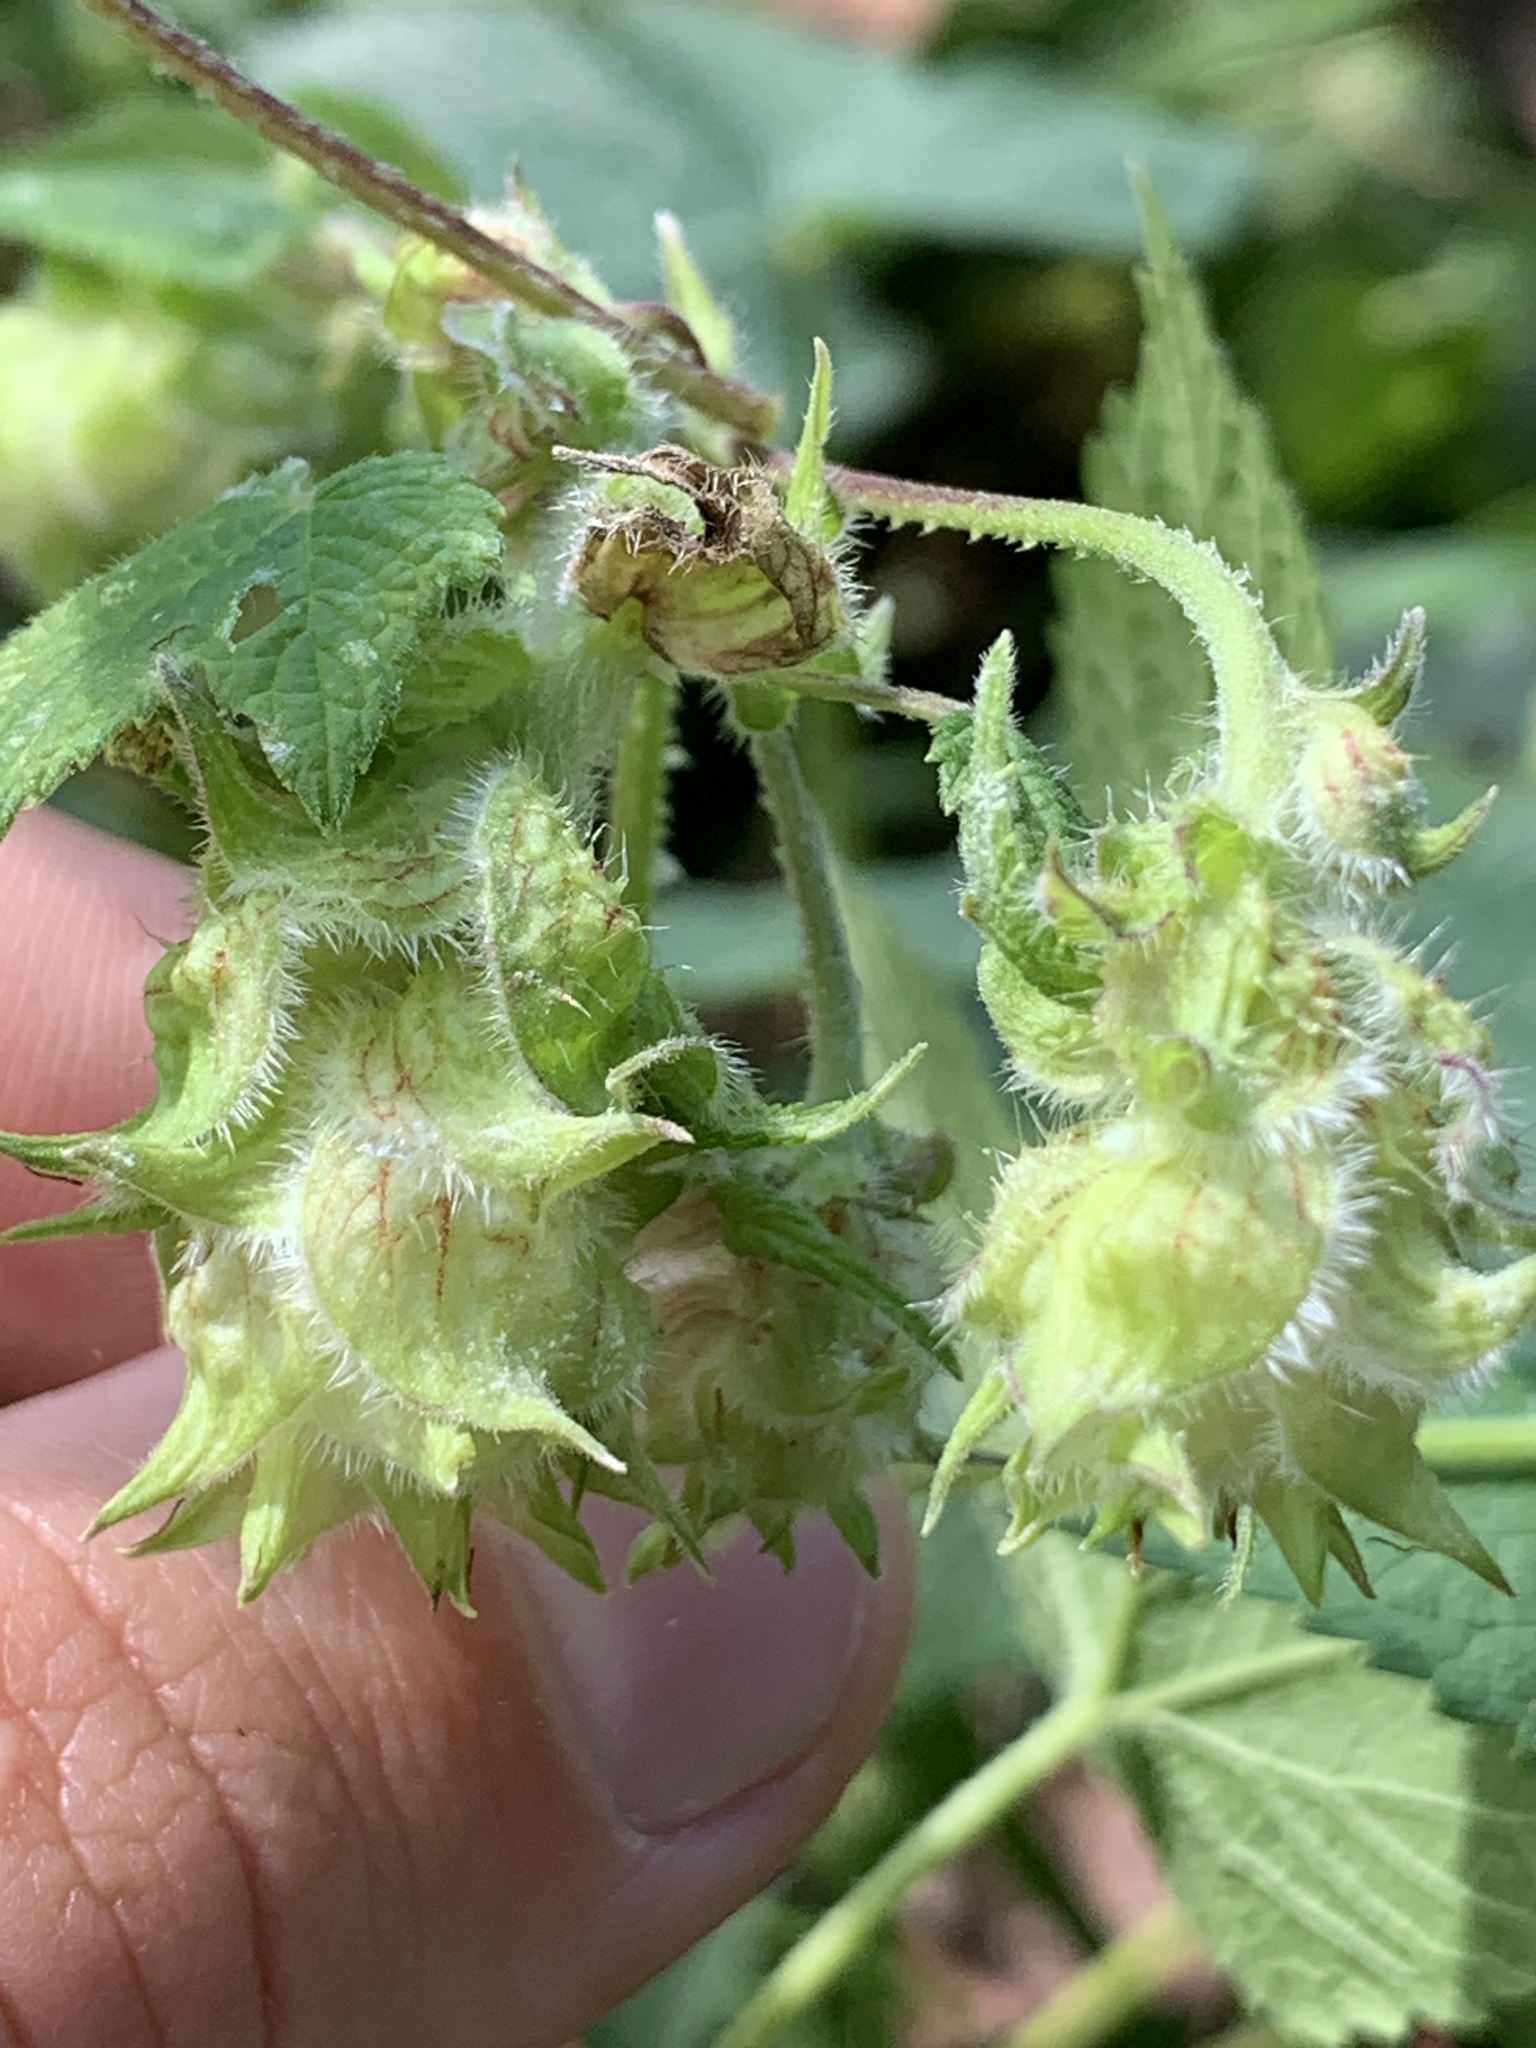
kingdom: Plantae
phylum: Tracheophyta
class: Magnoliopsida
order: Rosales
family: Cannabaceae
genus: Humulus
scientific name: Humulus scandens
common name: Japanese hop
